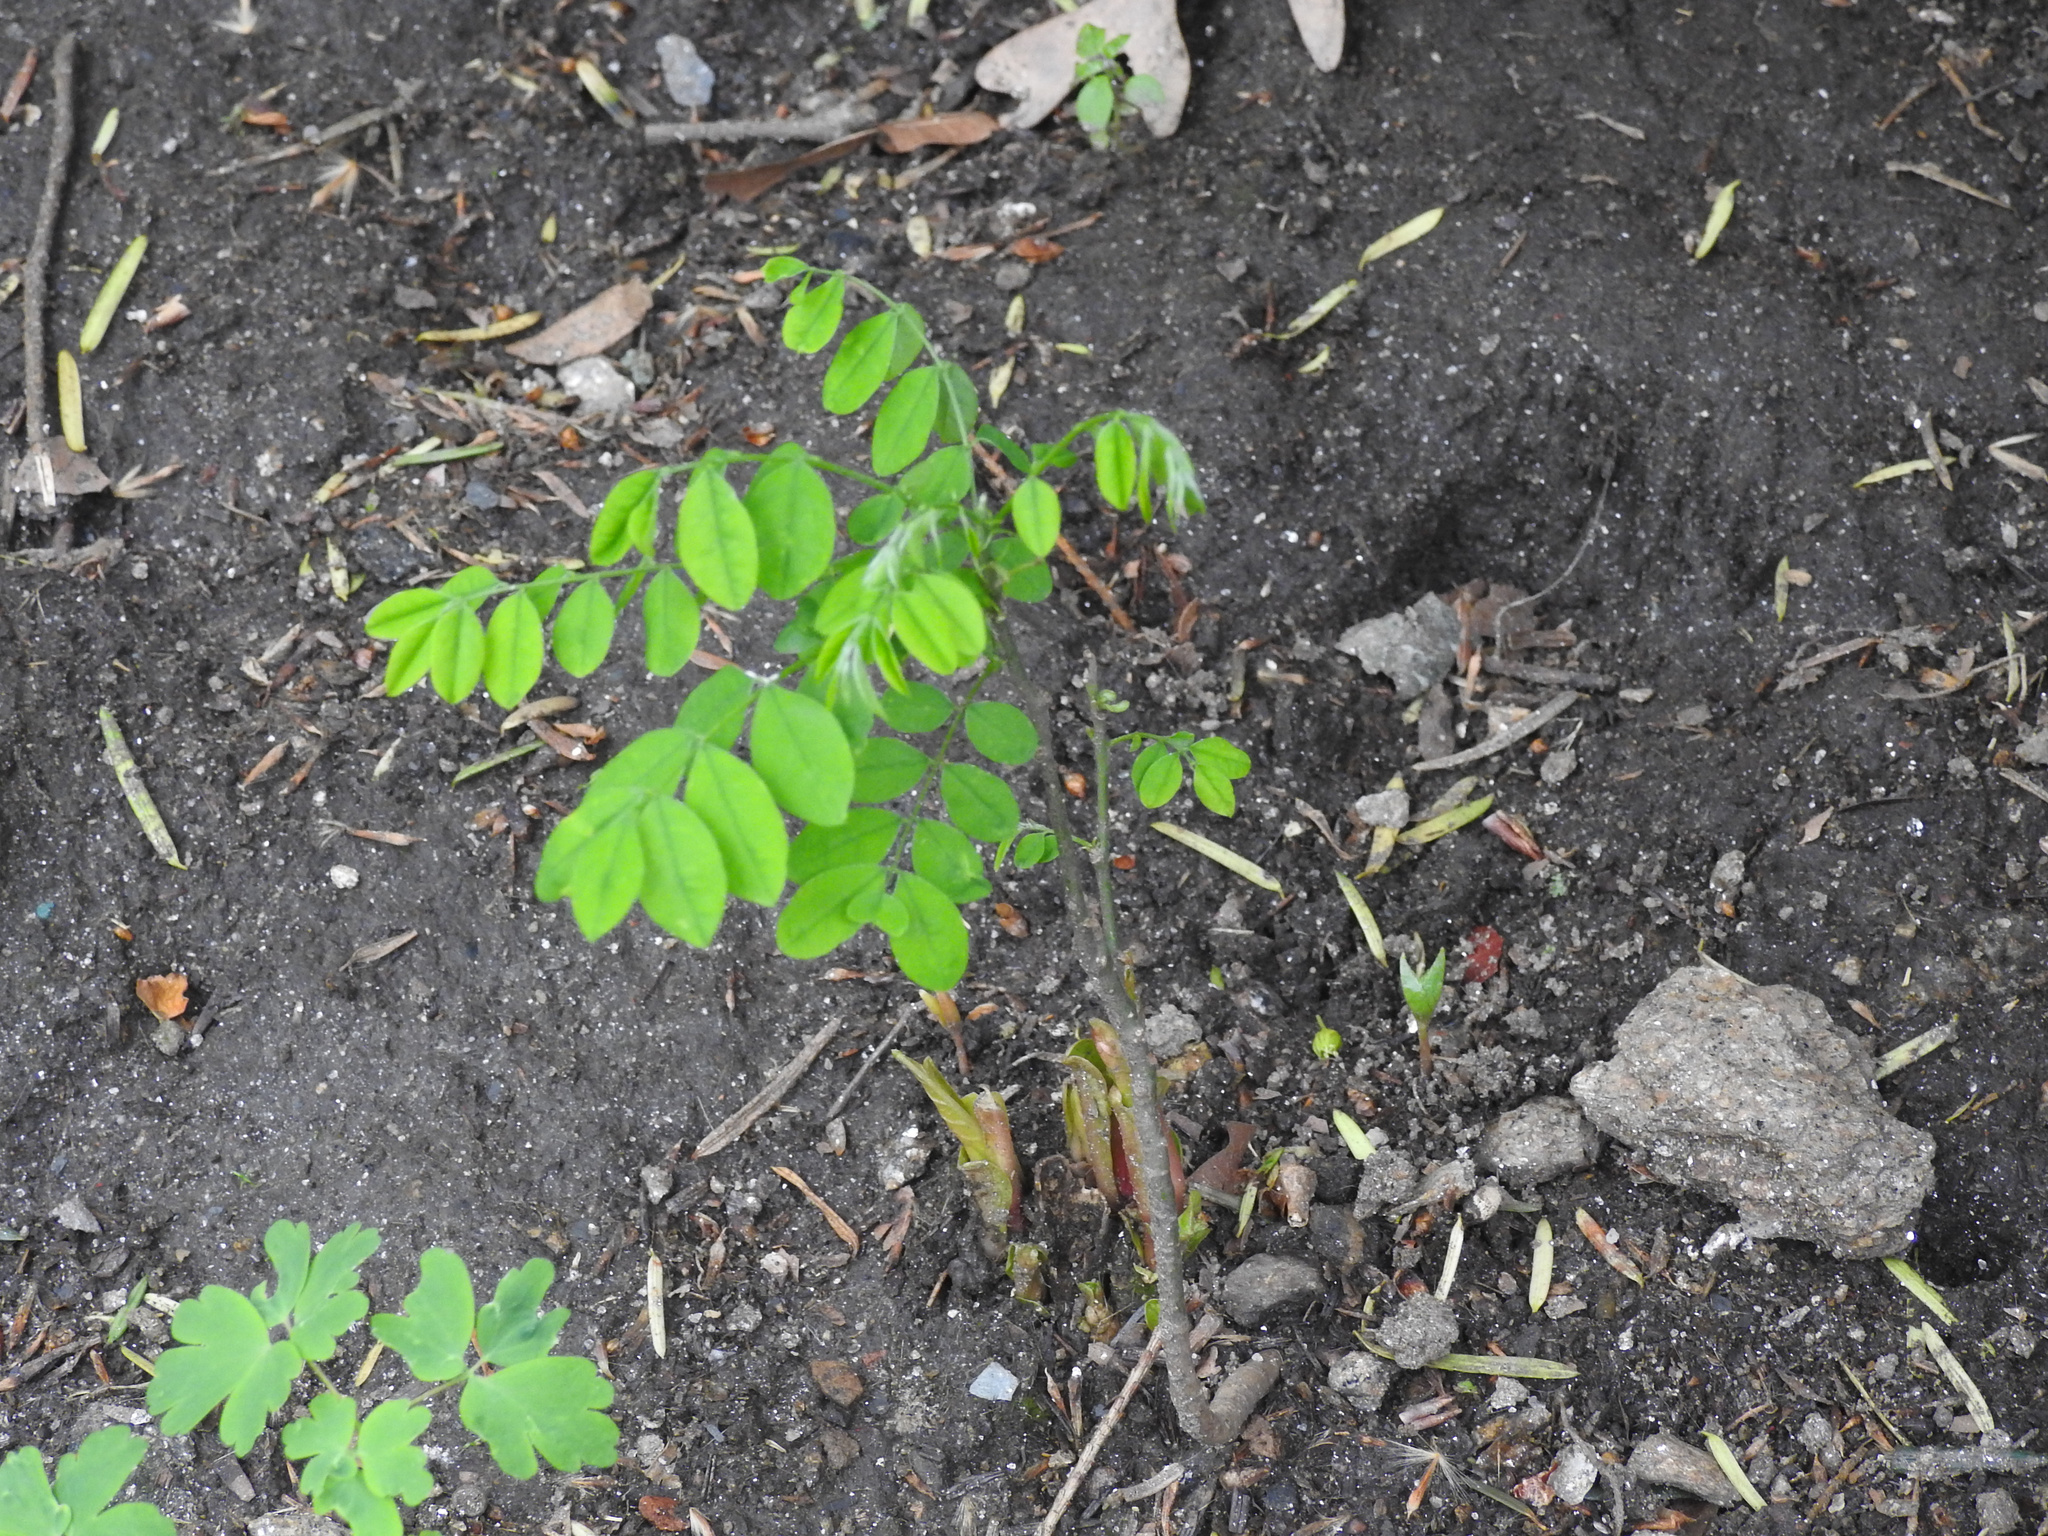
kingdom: Plantae
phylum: Tracheophyta
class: Magnoliopsida
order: Fabales
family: Fabaceae
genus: Robinia
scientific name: Robinia pseudoacacia
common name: Black locust
